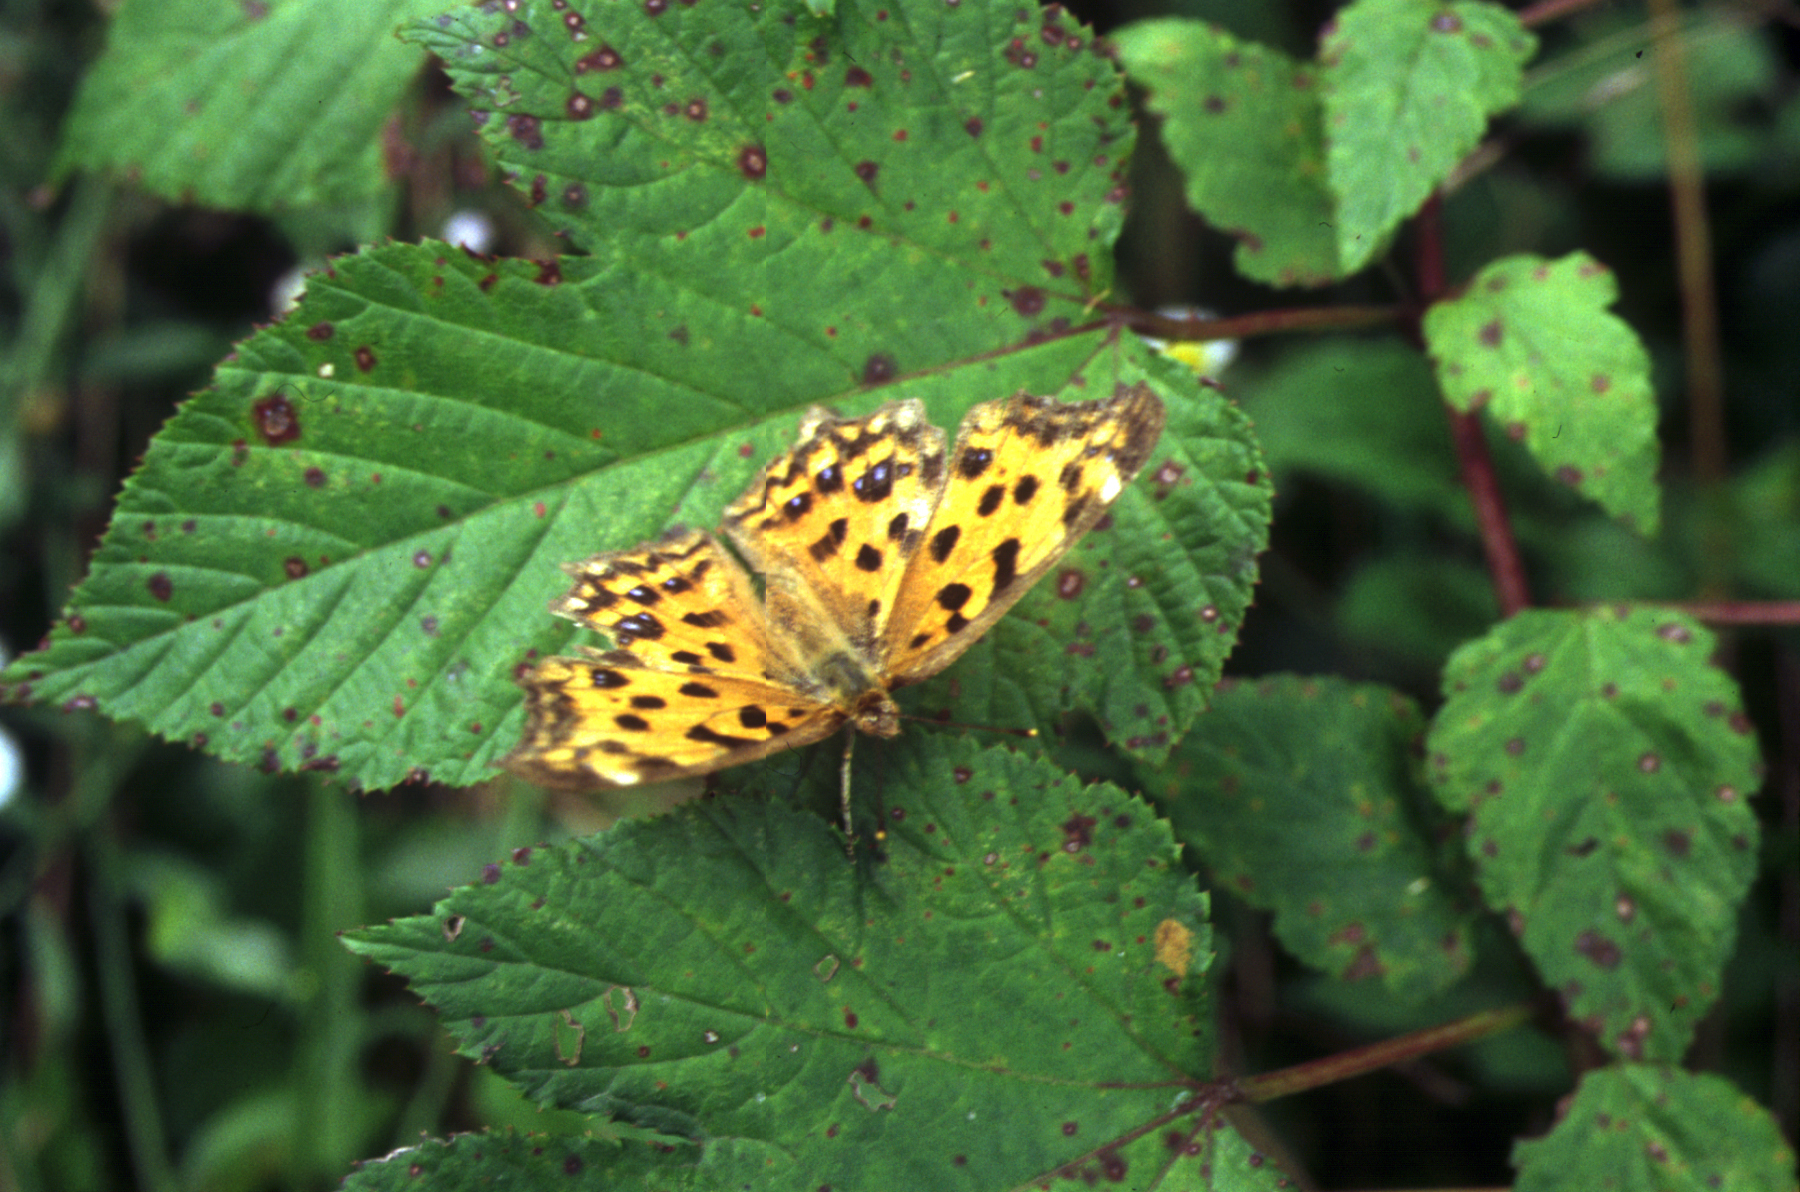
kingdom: Animalia
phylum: Arthropoda
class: Insecta
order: Lepidoptera
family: Nymphalidae
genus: Polygonia
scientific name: Polygonia c-aureum
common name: Asian comma
